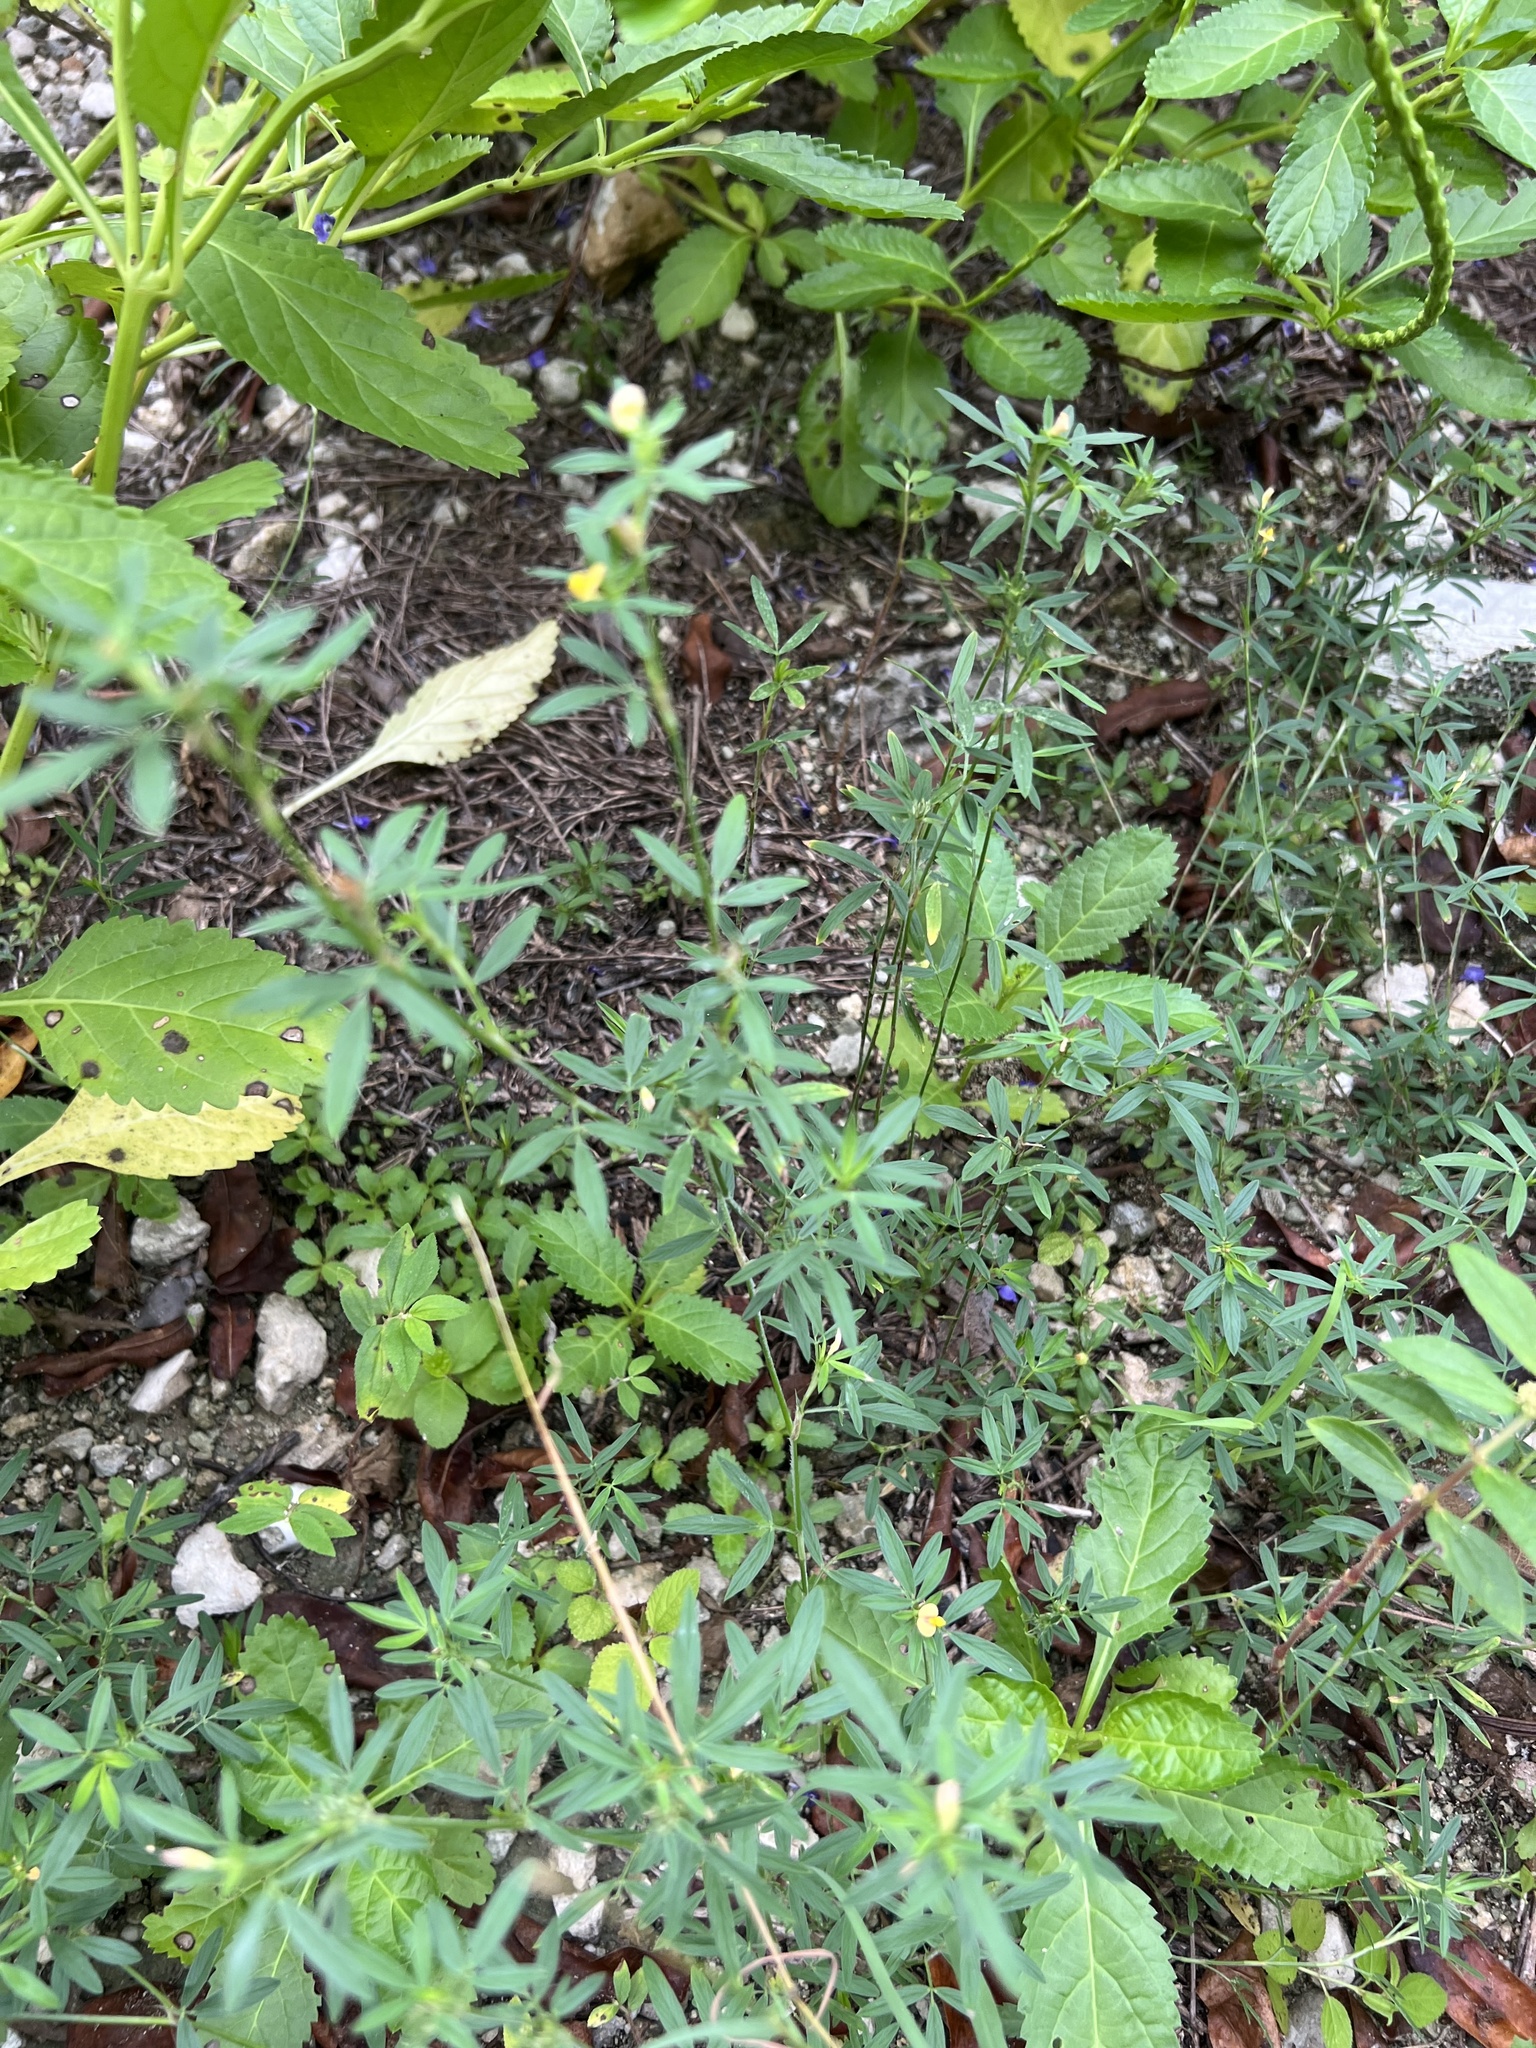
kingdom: Plantae
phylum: Tracheophyta
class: Magnoliopsida
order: Fabales
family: Fabaceae
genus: Stylosanthes
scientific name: Stylosanthes hamata
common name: Cheesytoes
